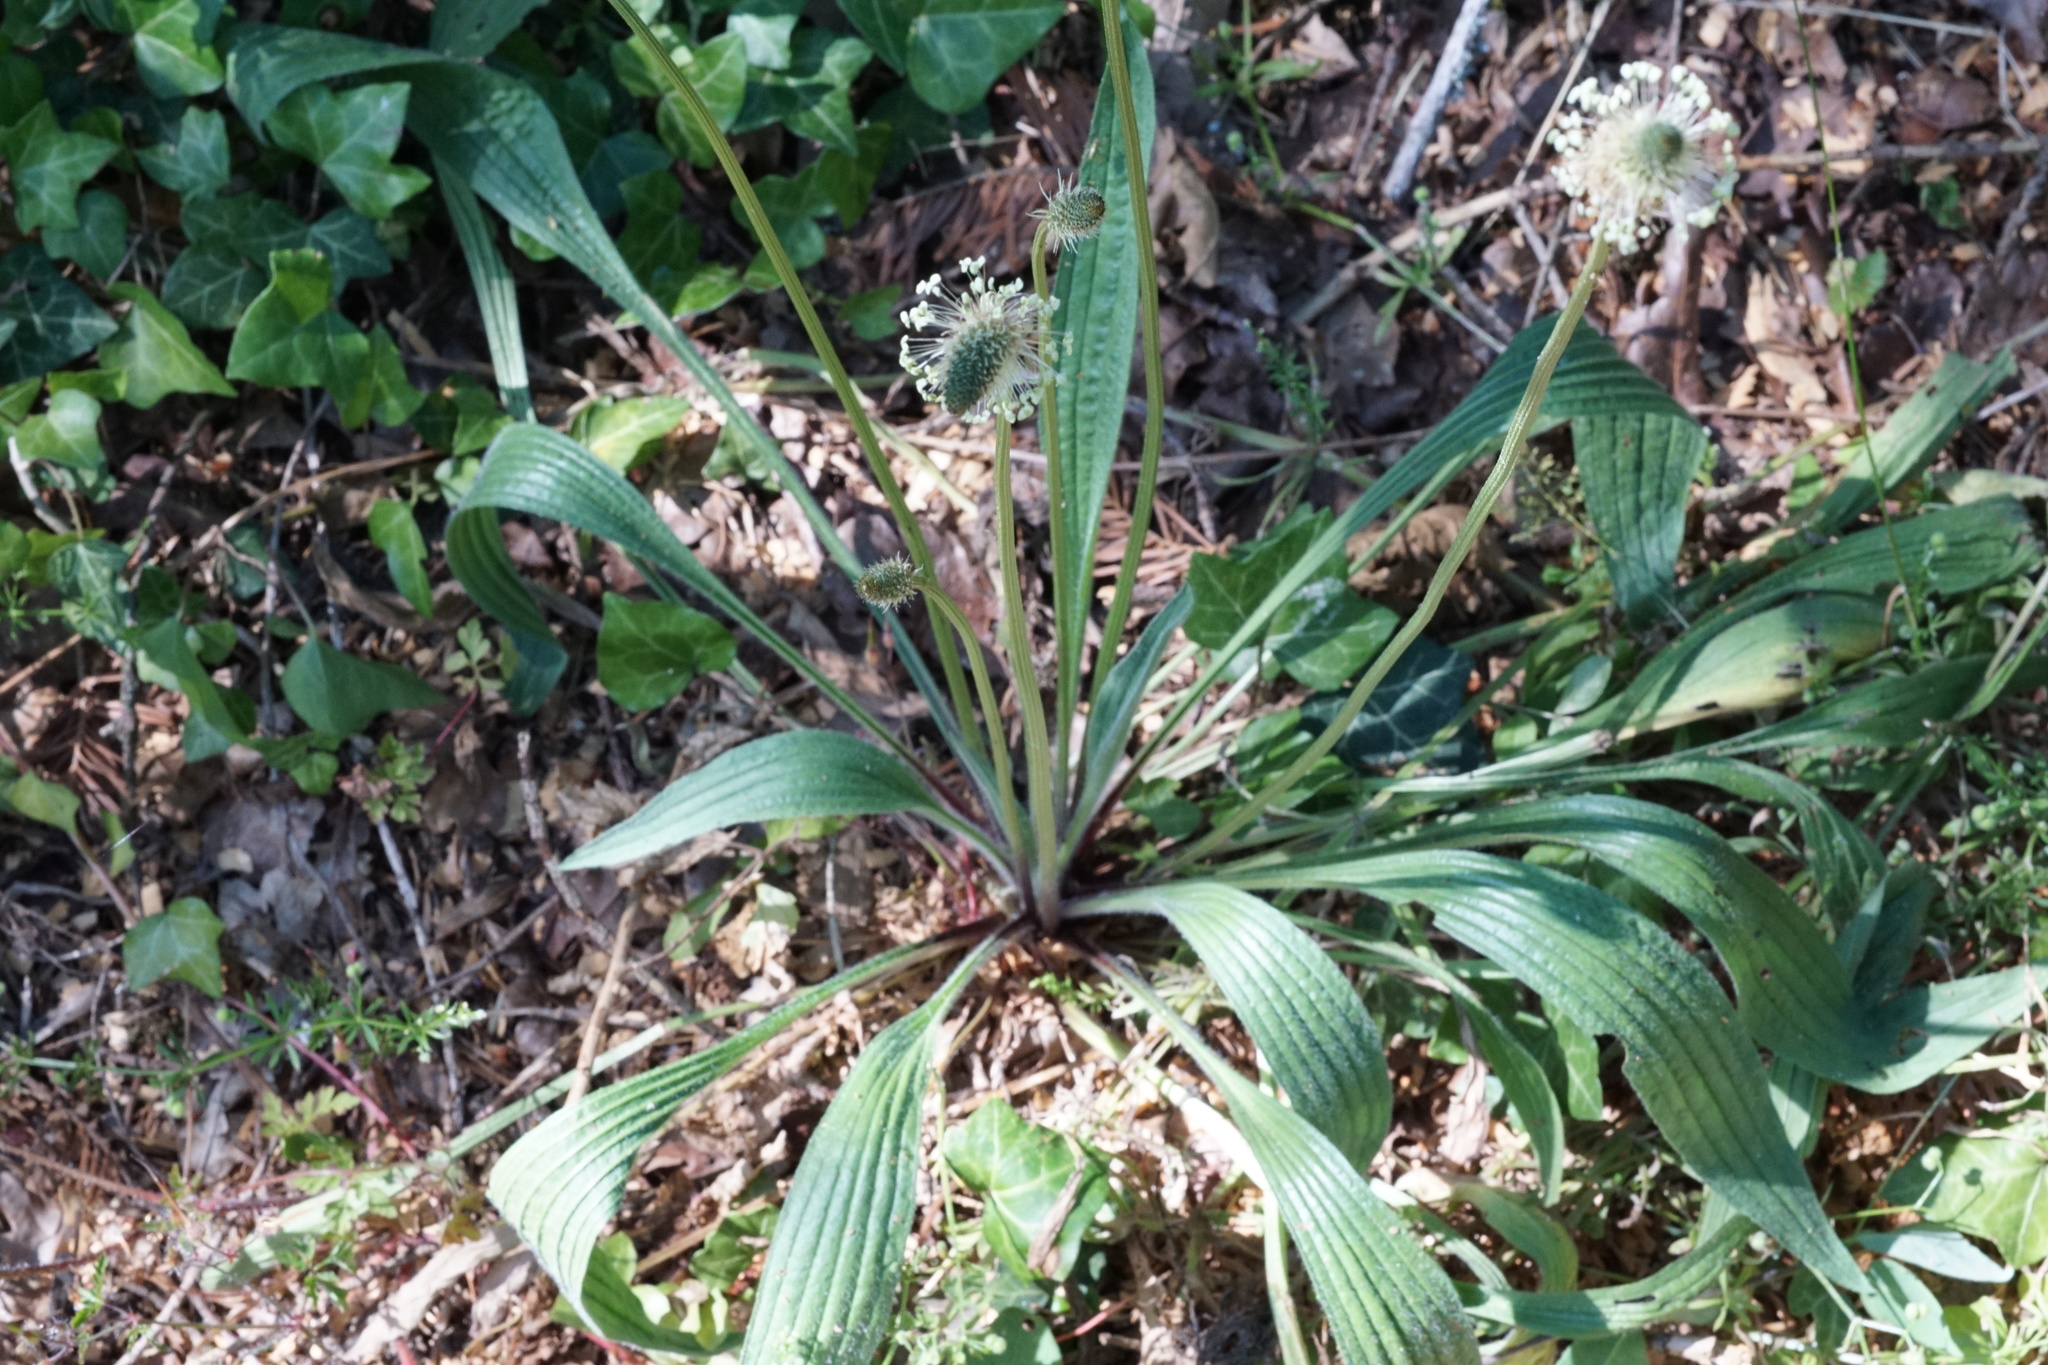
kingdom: Plantae
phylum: Tracheophyta
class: Magnoliopsida
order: Lamiales
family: Plantaginaceae
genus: Plantago
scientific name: Plantago lanceolata
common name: Ribwort plantain
